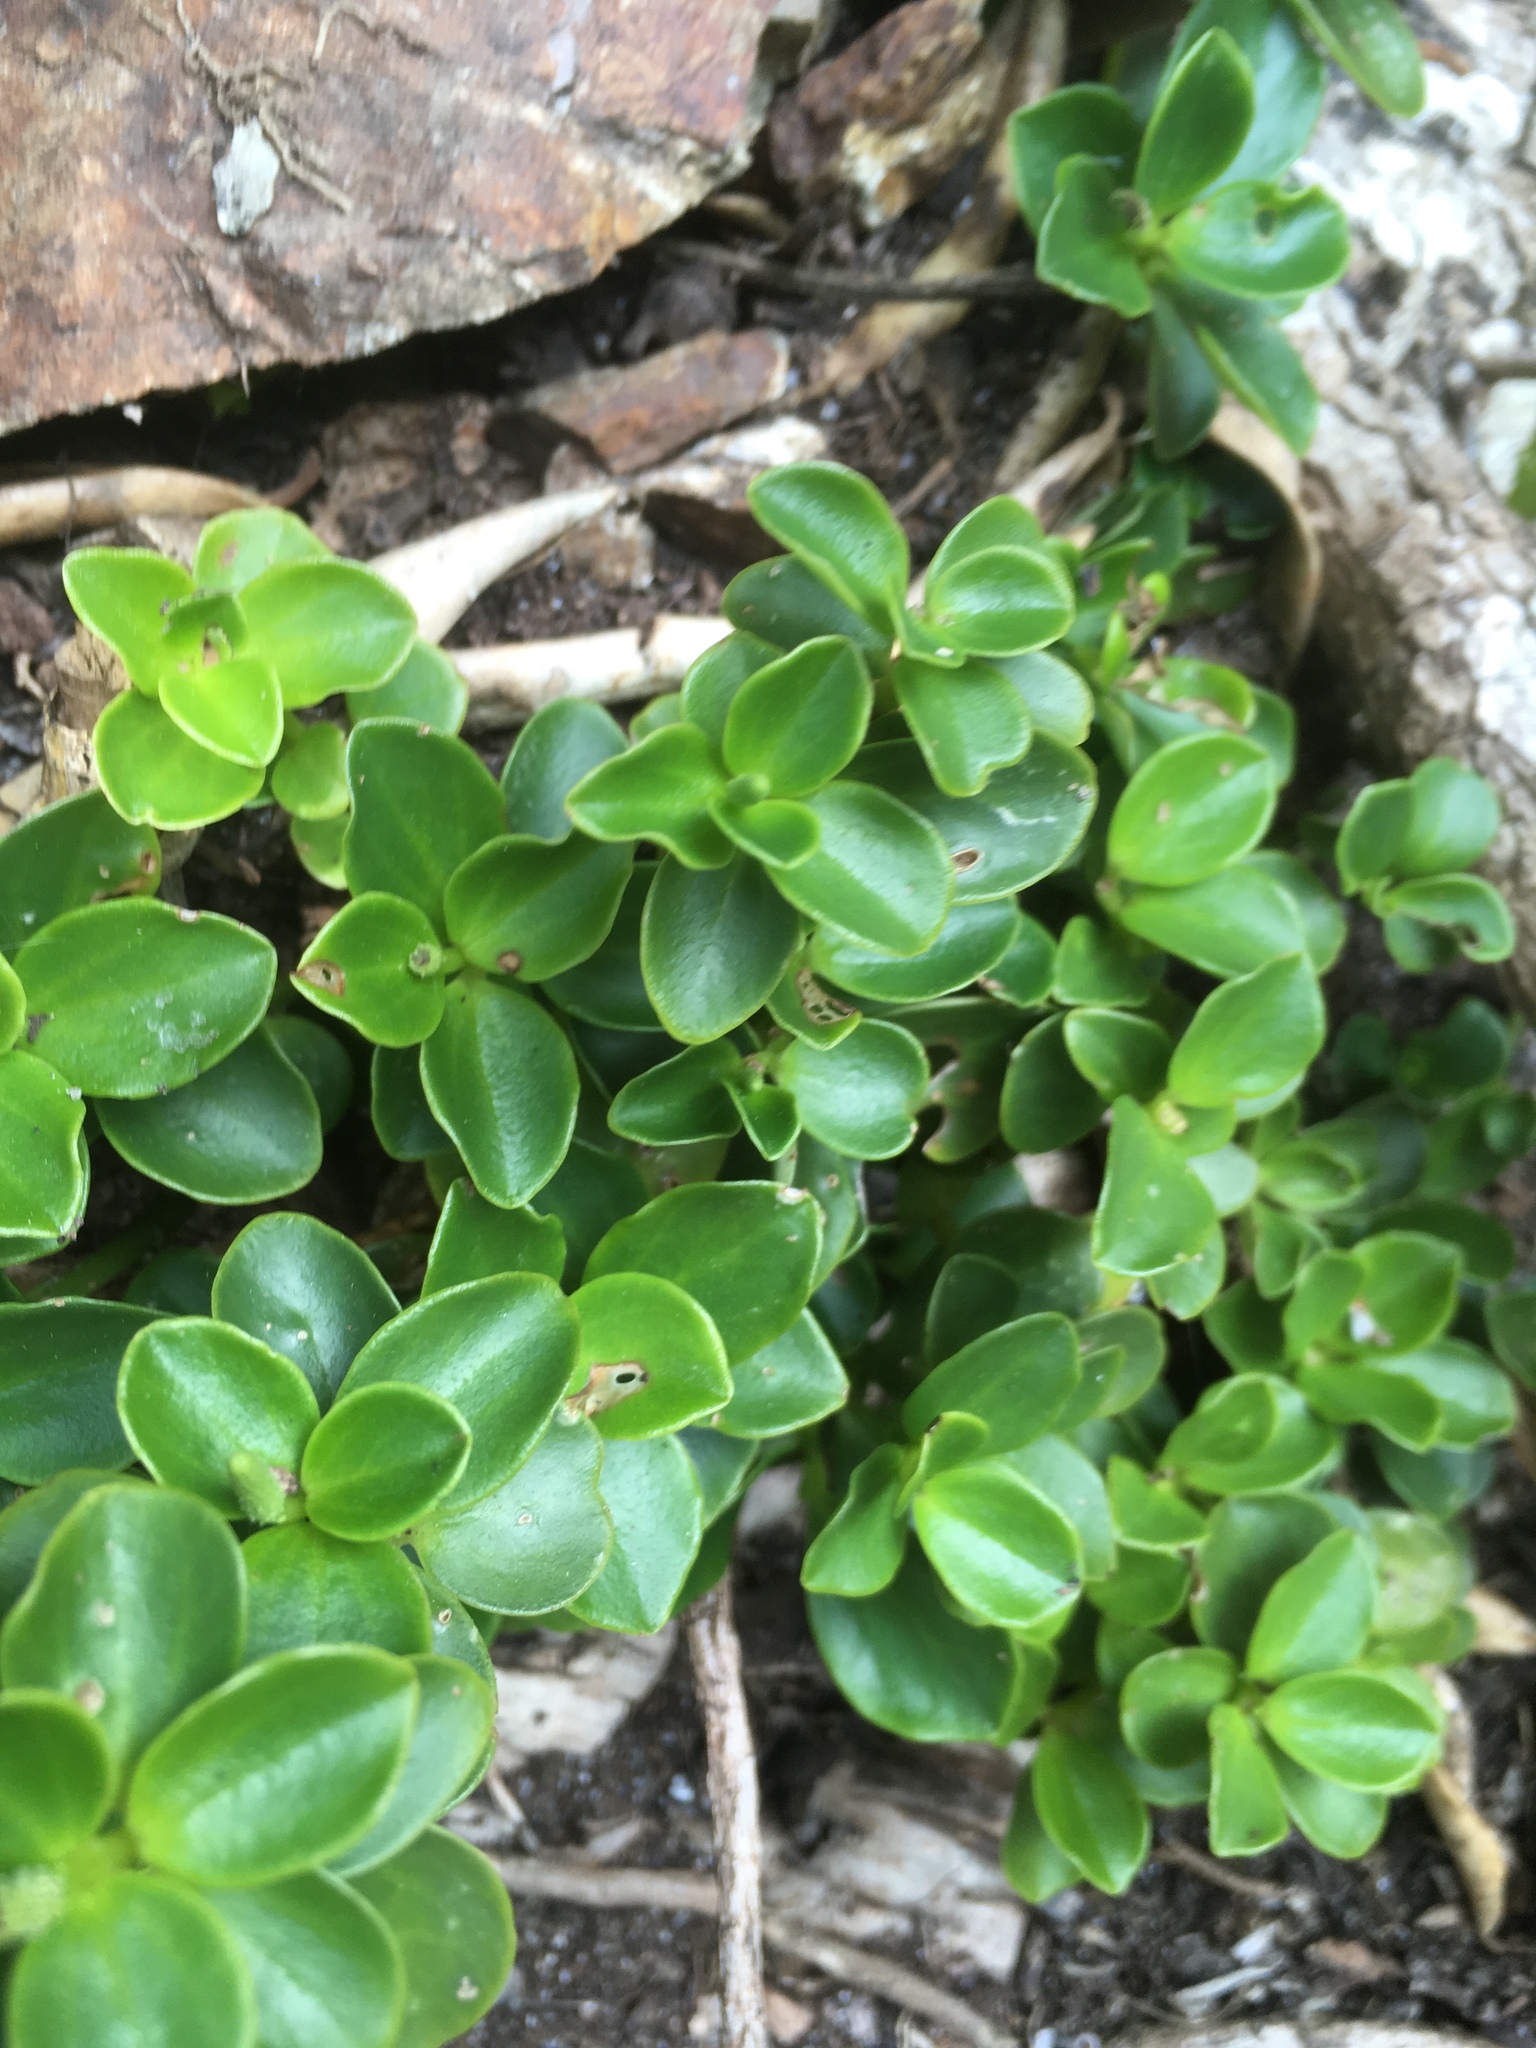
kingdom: Plantae
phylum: Tracheophyta
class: Magnoliopsida
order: Piperales
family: Piperaceae
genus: Peperomia
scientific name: Peperomia urvilleana
